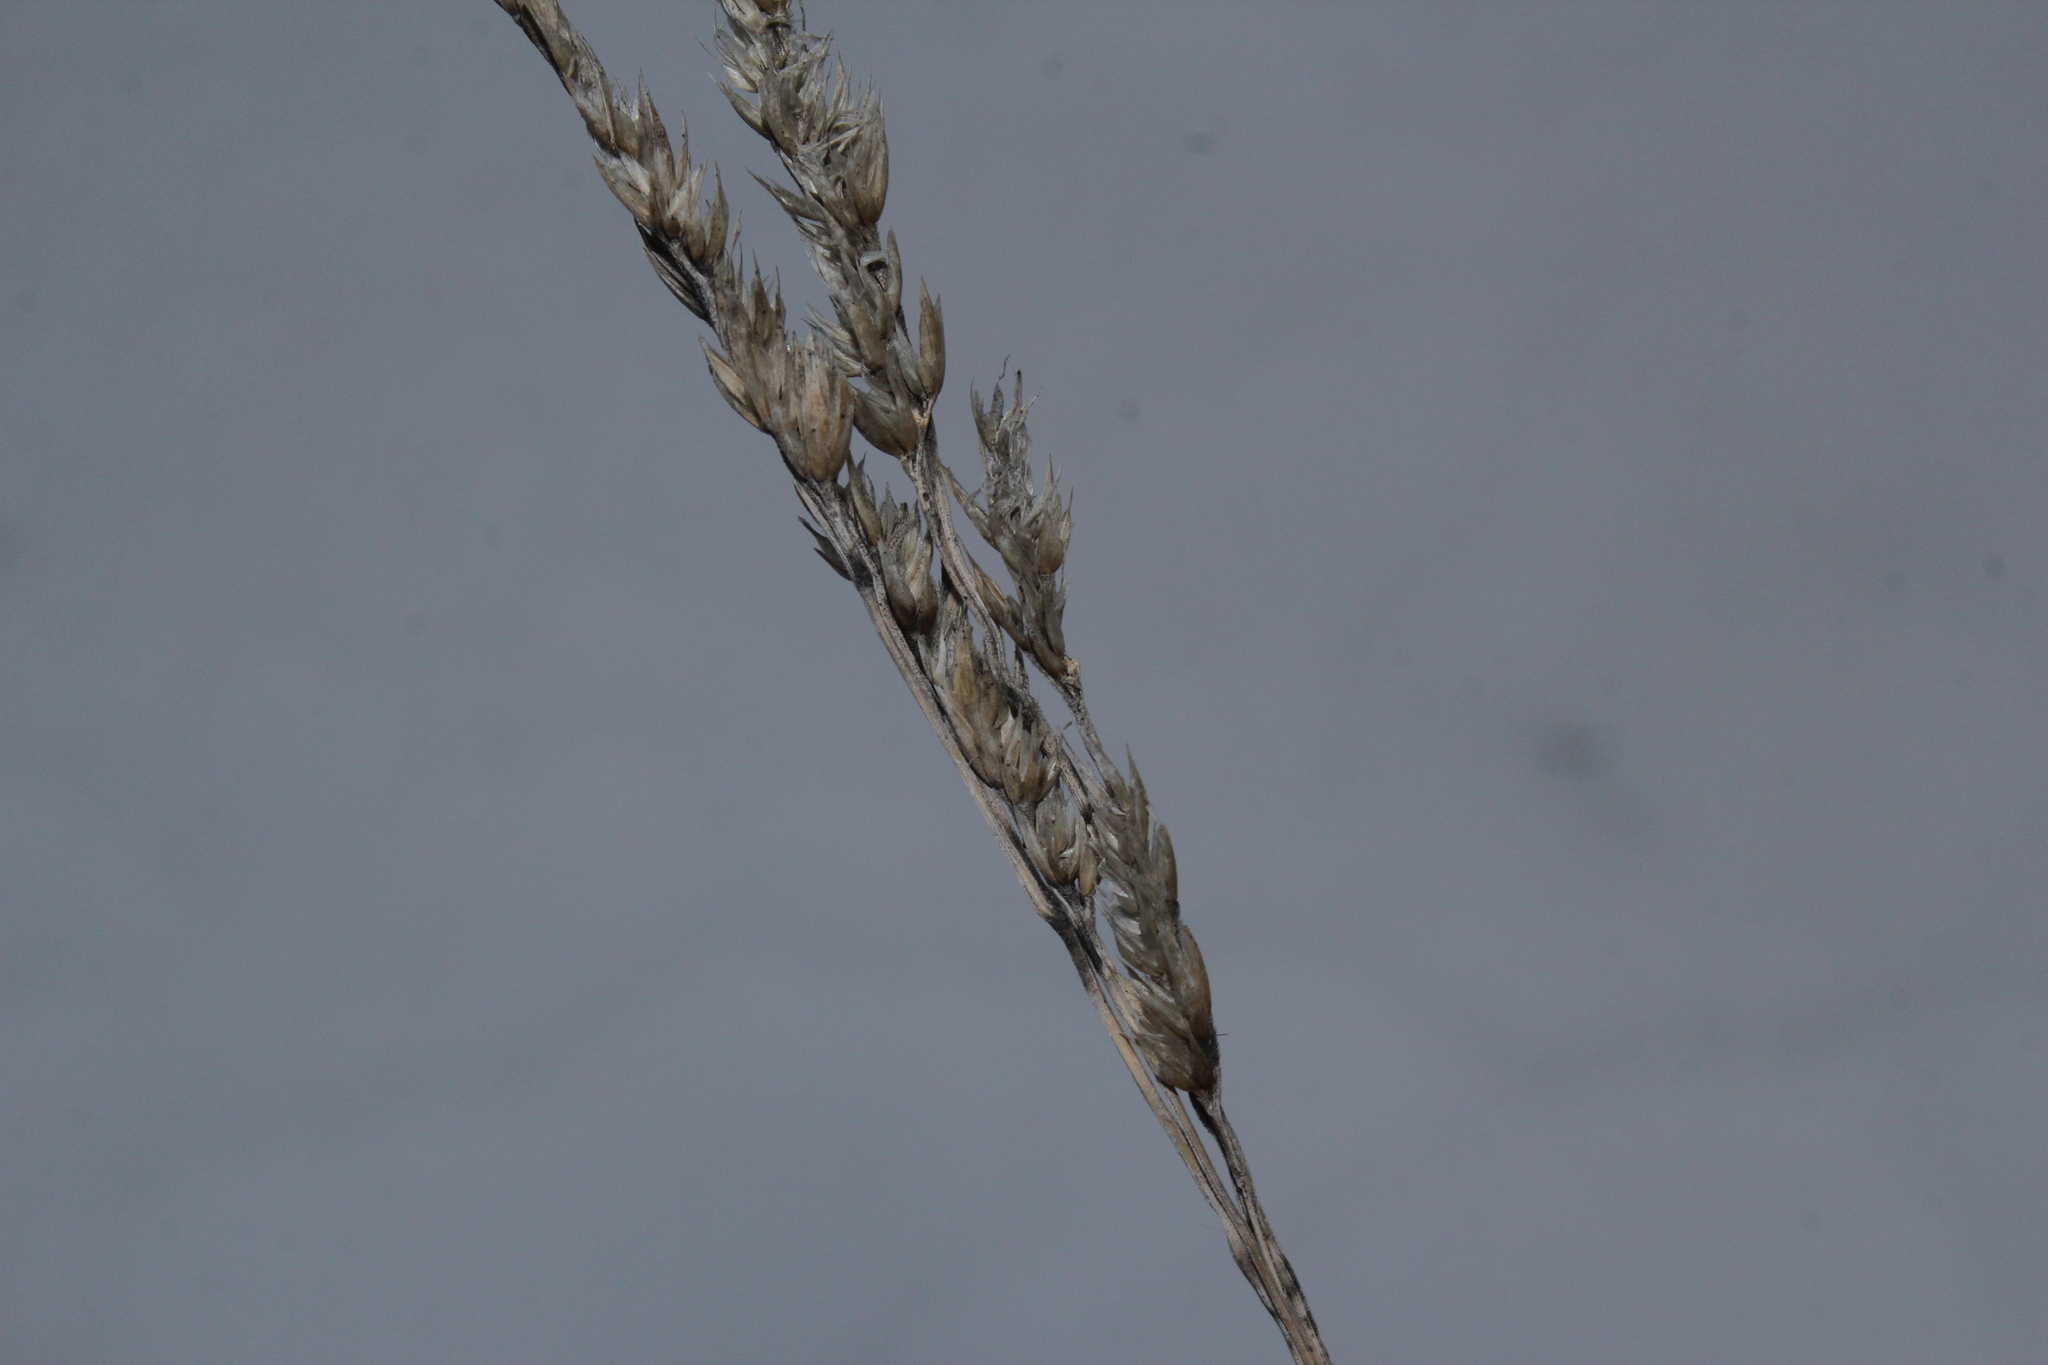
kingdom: Plantae
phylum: Tracheophyta
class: Liliopsida
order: Poales
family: Poaceae
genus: Dactylis
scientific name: Dactylis glomerata
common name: Orchardgrass
